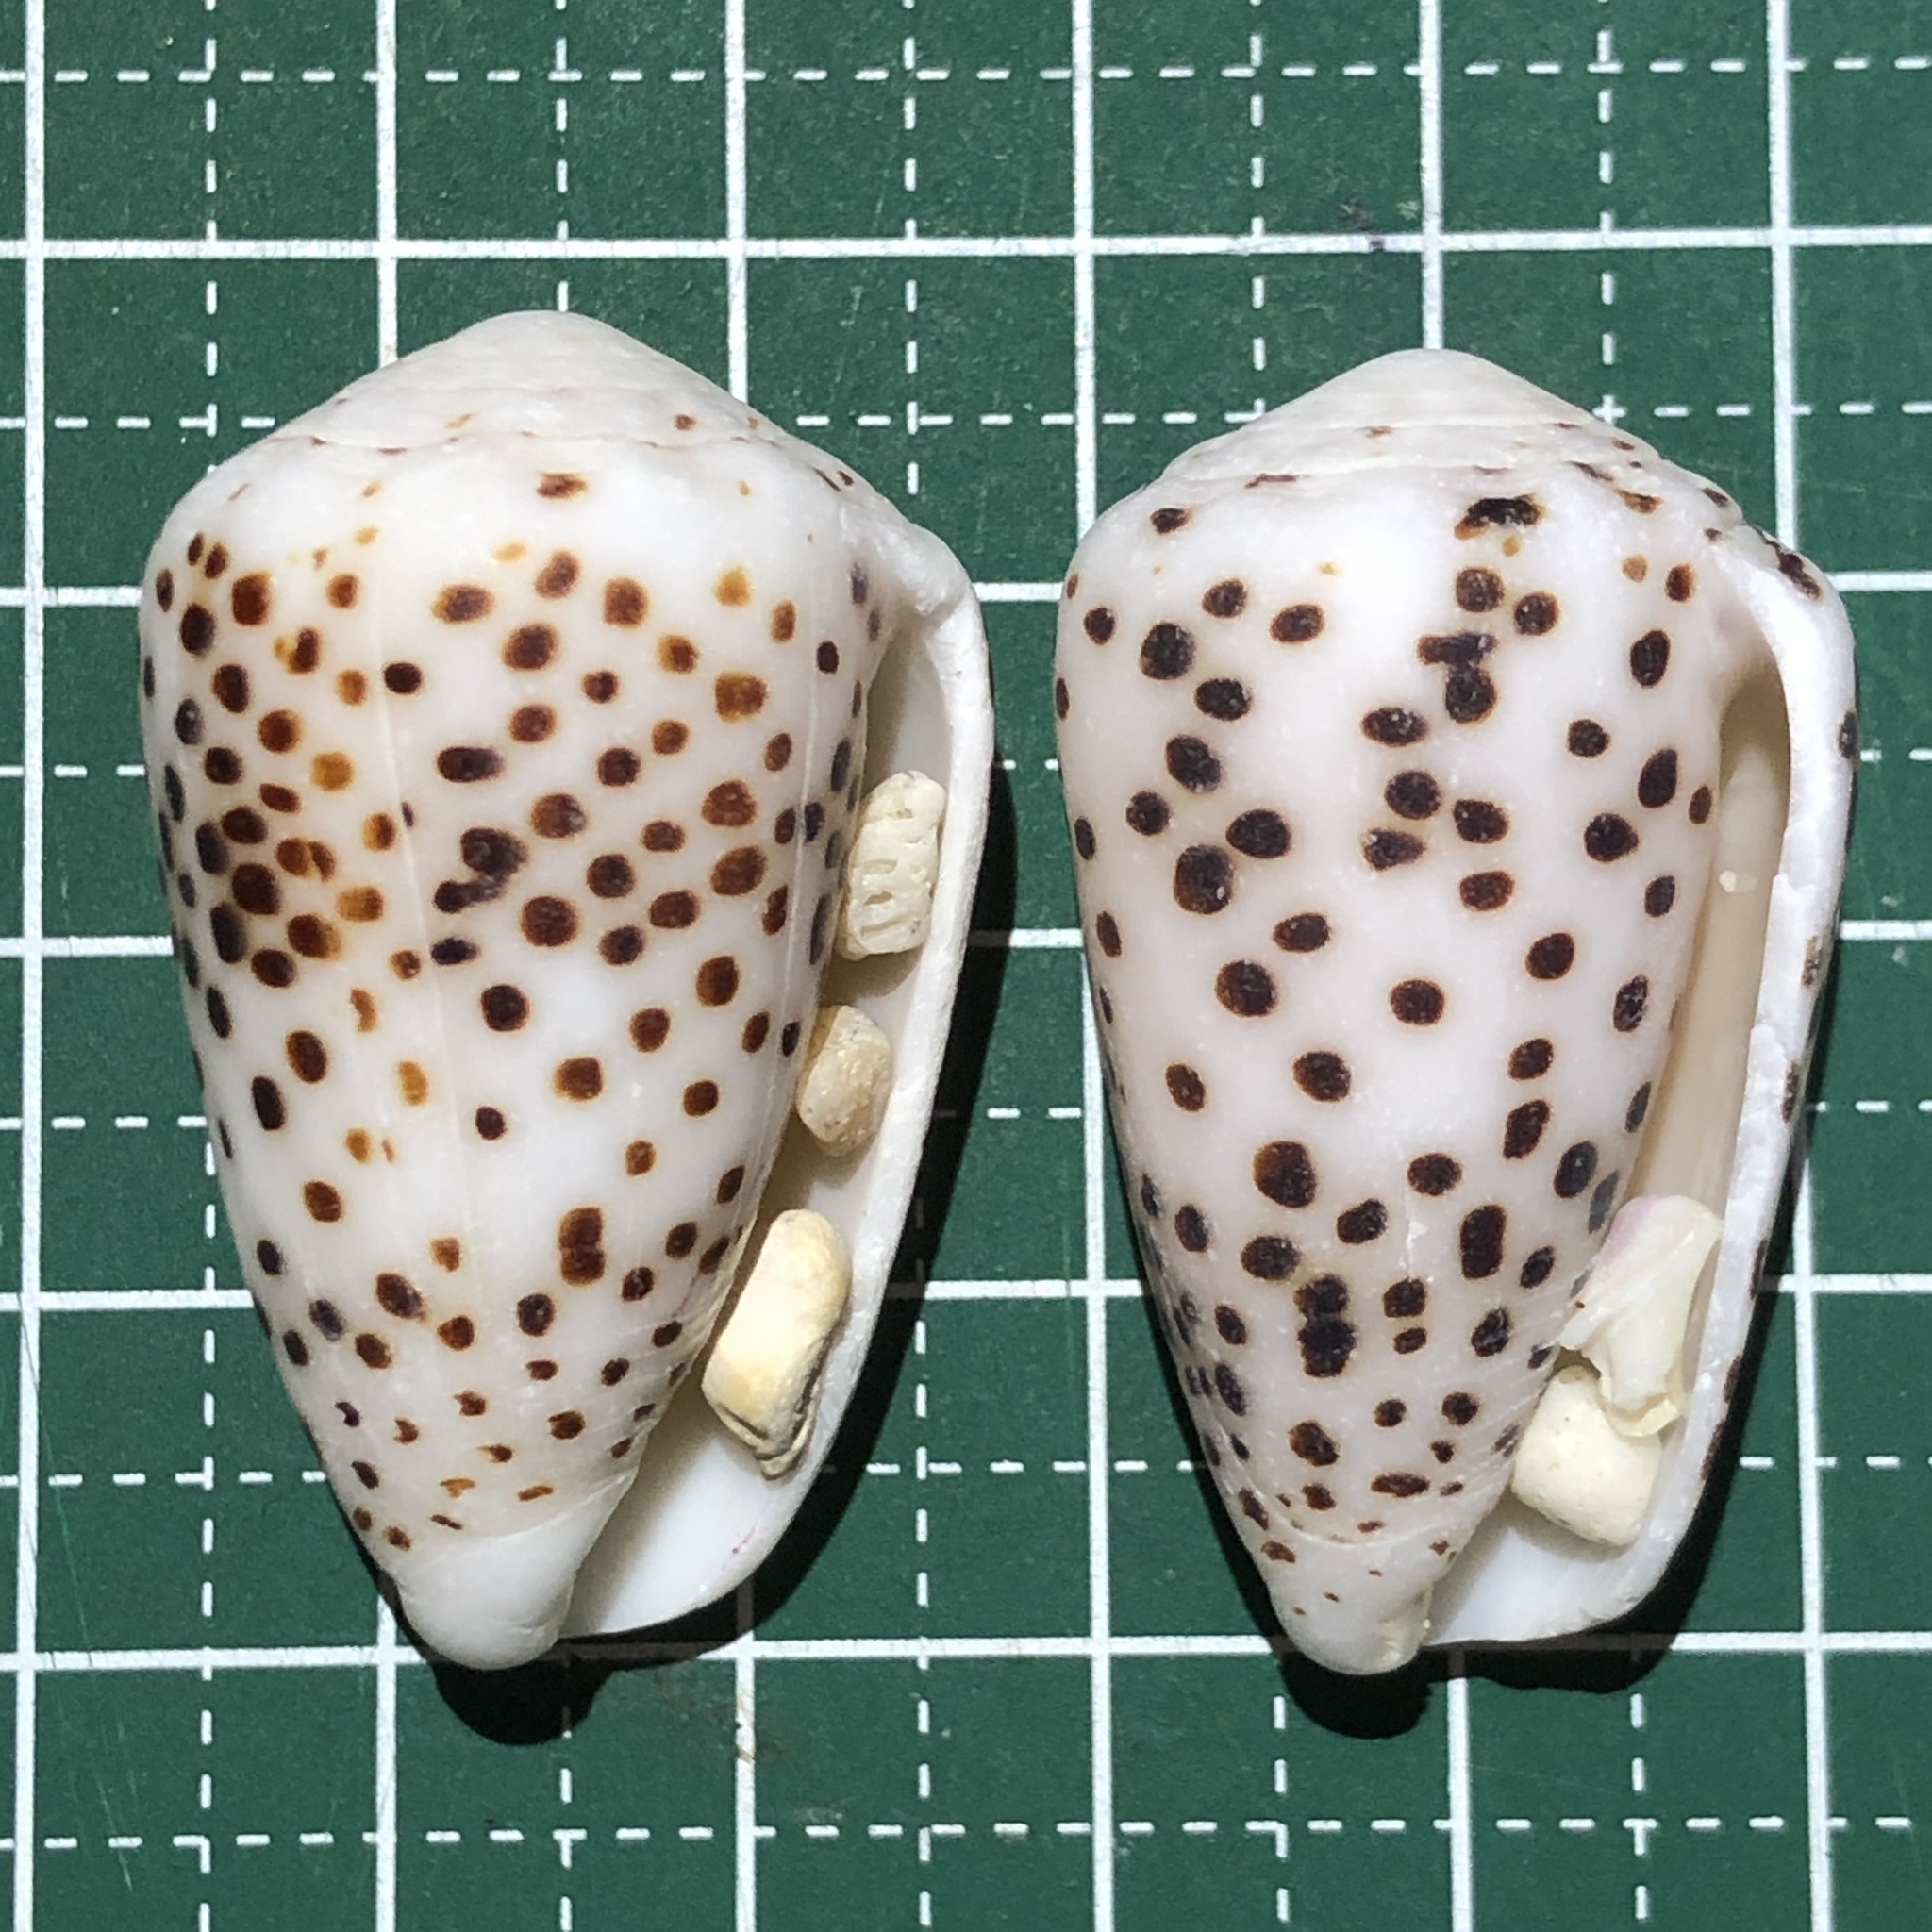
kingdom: Animalia
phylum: Mollusca
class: Gastropoda
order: Neogastropoda
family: Conidae
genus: Conus
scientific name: Conus pulicarius
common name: Flea-bite cone
